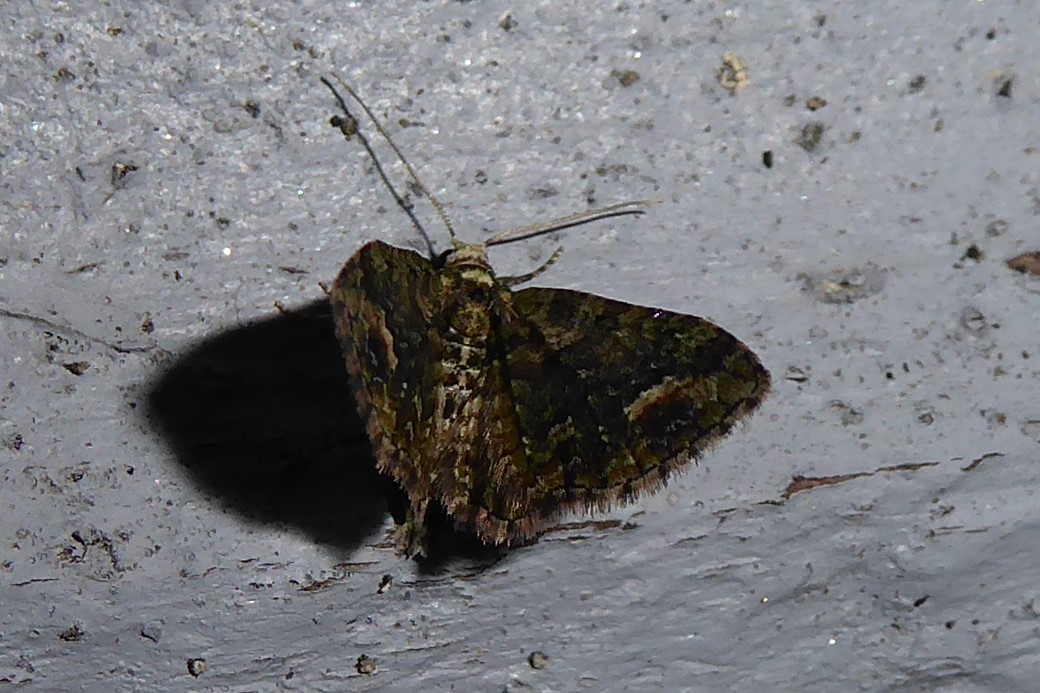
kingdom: Animalia
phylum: Arthropoda
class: Insecta
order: Lepidoptera
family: Geometridae
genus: Idaea
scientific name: Idaea mutanda
